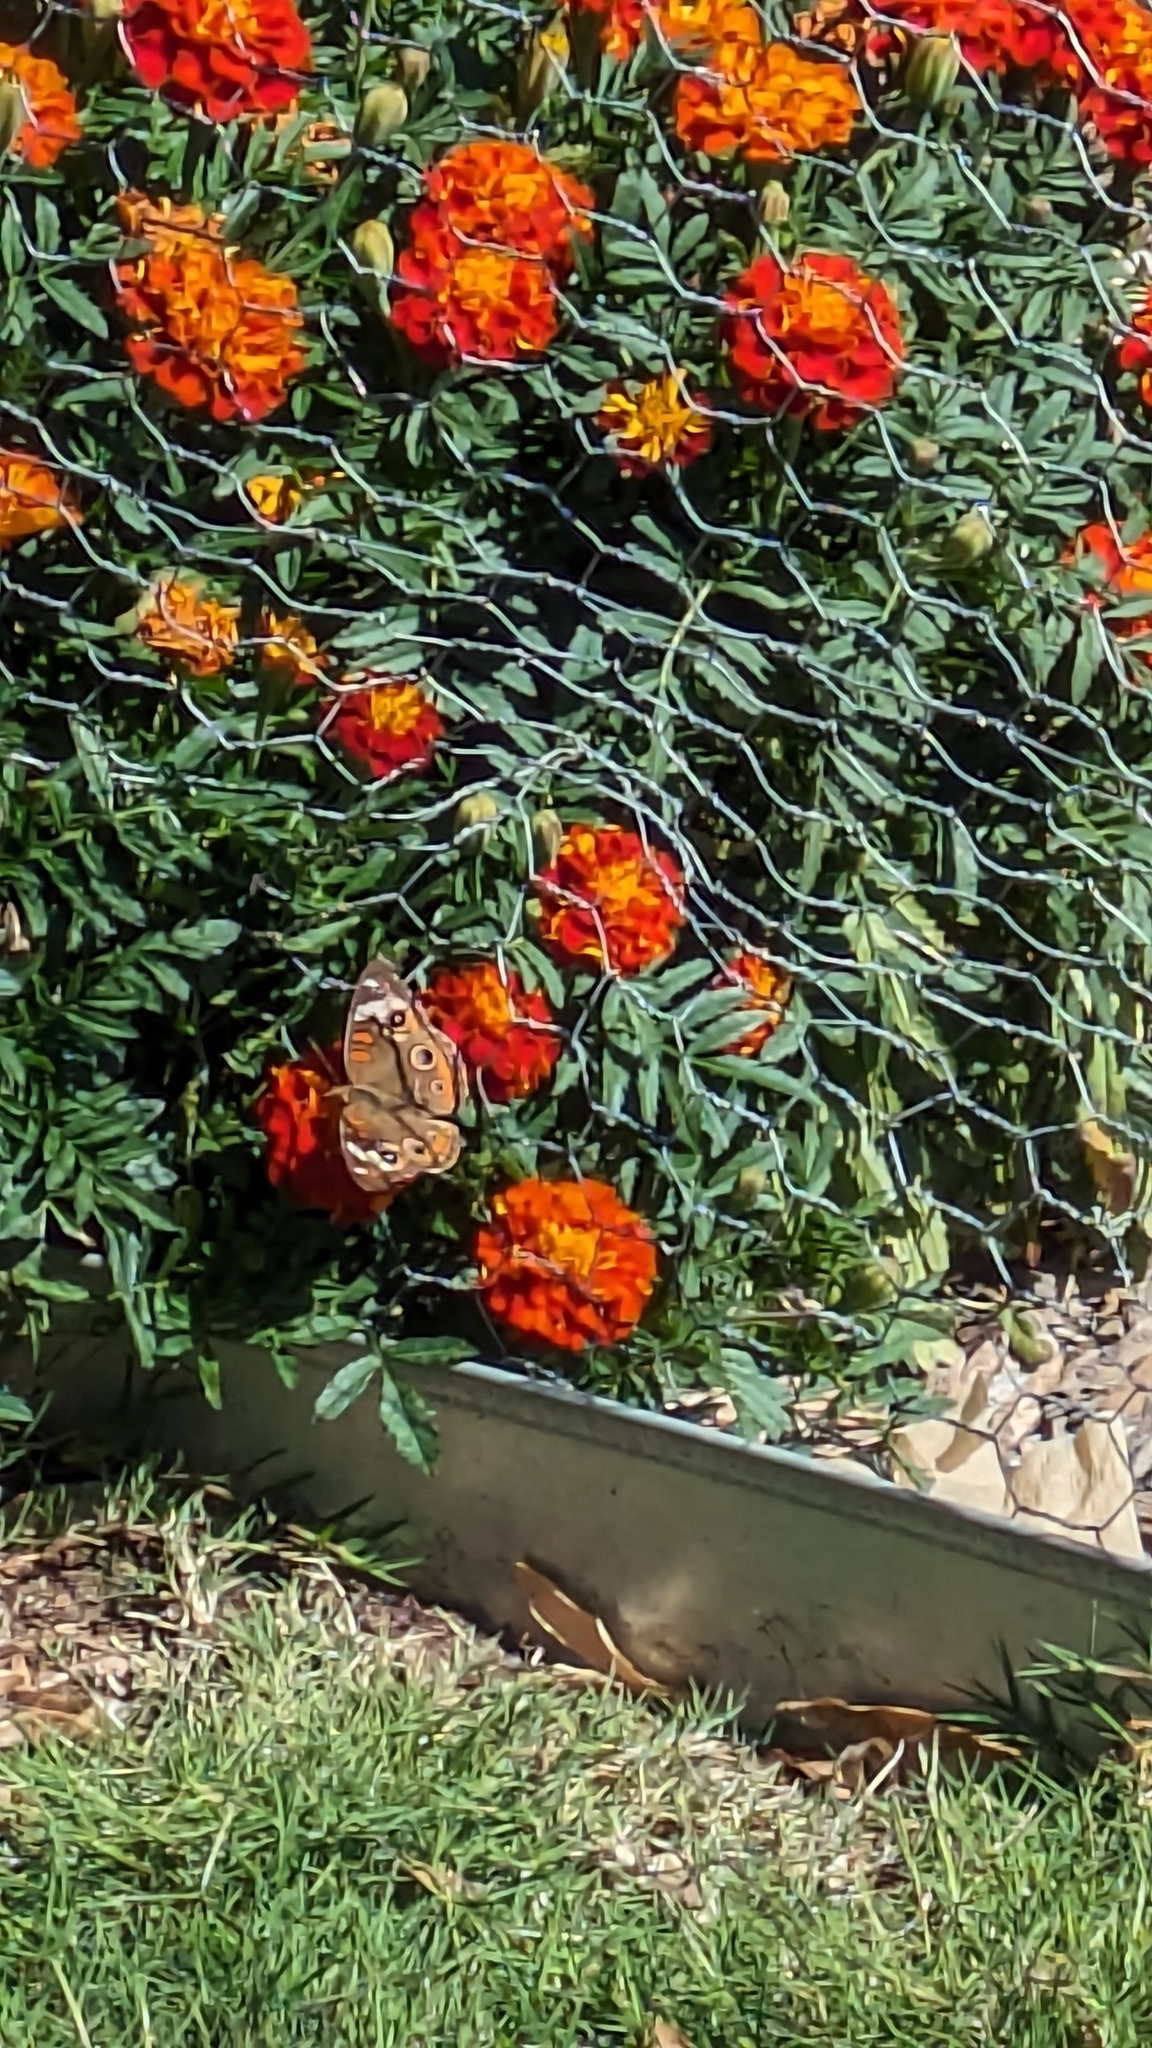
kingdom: Animalia
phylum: Arthropoda
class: Insecta
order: Lepidoptera
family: Nymphalidae
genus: Junonia
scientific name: Junonia coenia
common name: Common buckeye
